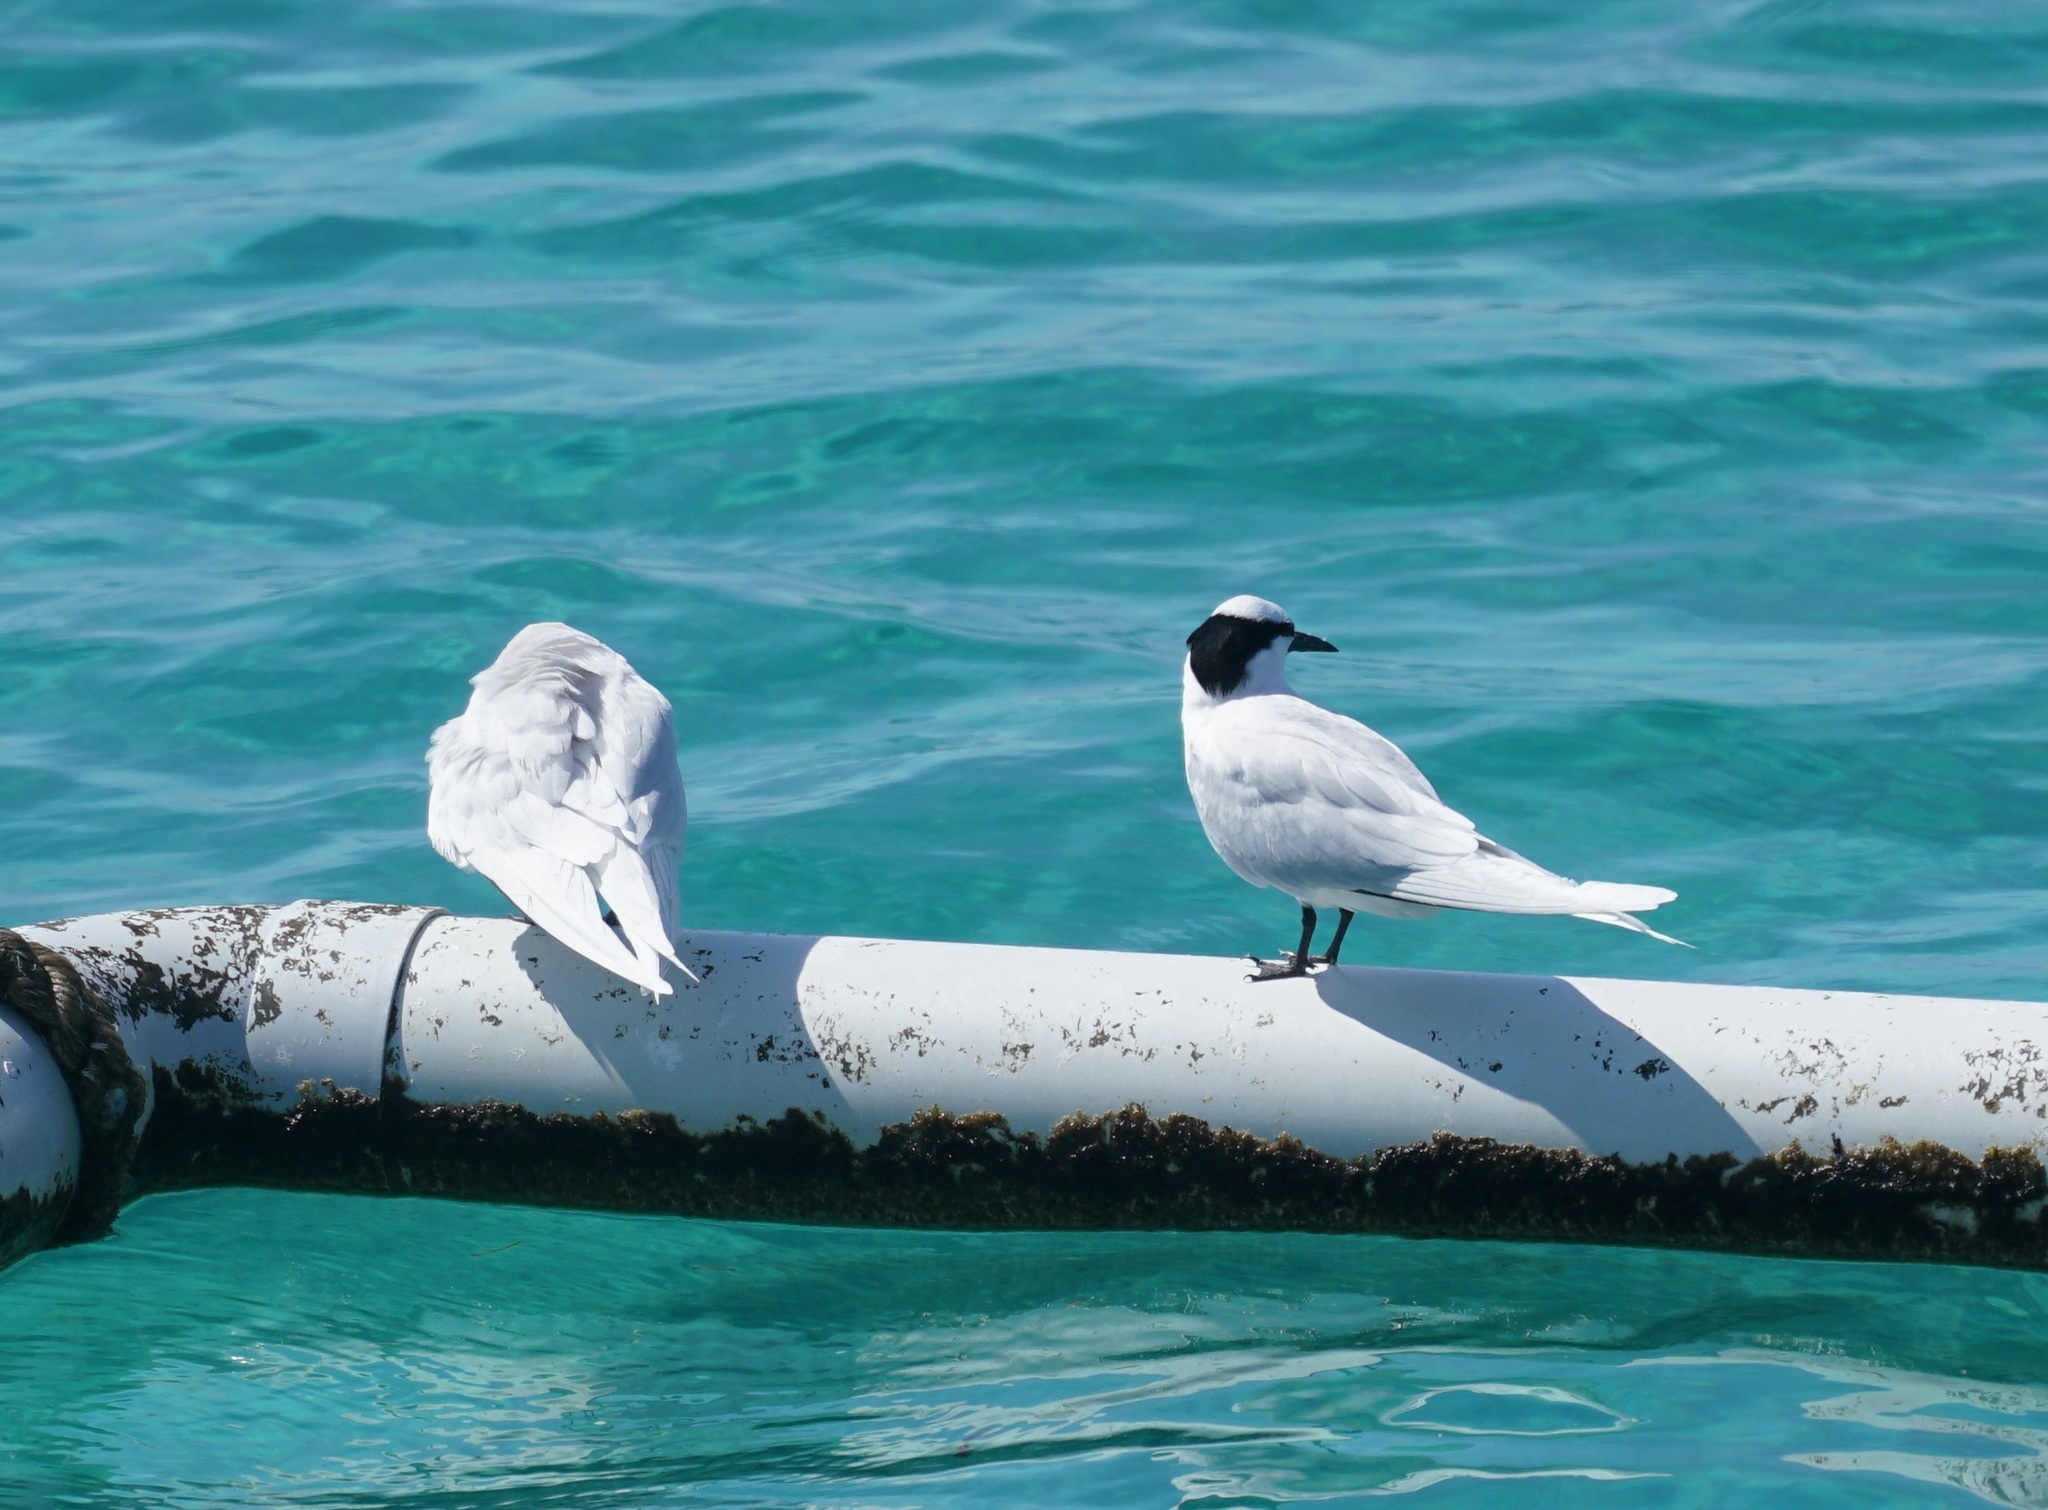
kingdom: Animalia
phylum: Chordata
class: Aves
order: Charadriiformes
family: Laridae
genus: Sterna
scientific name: Sterna sumatrana
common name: Black-naped tern
